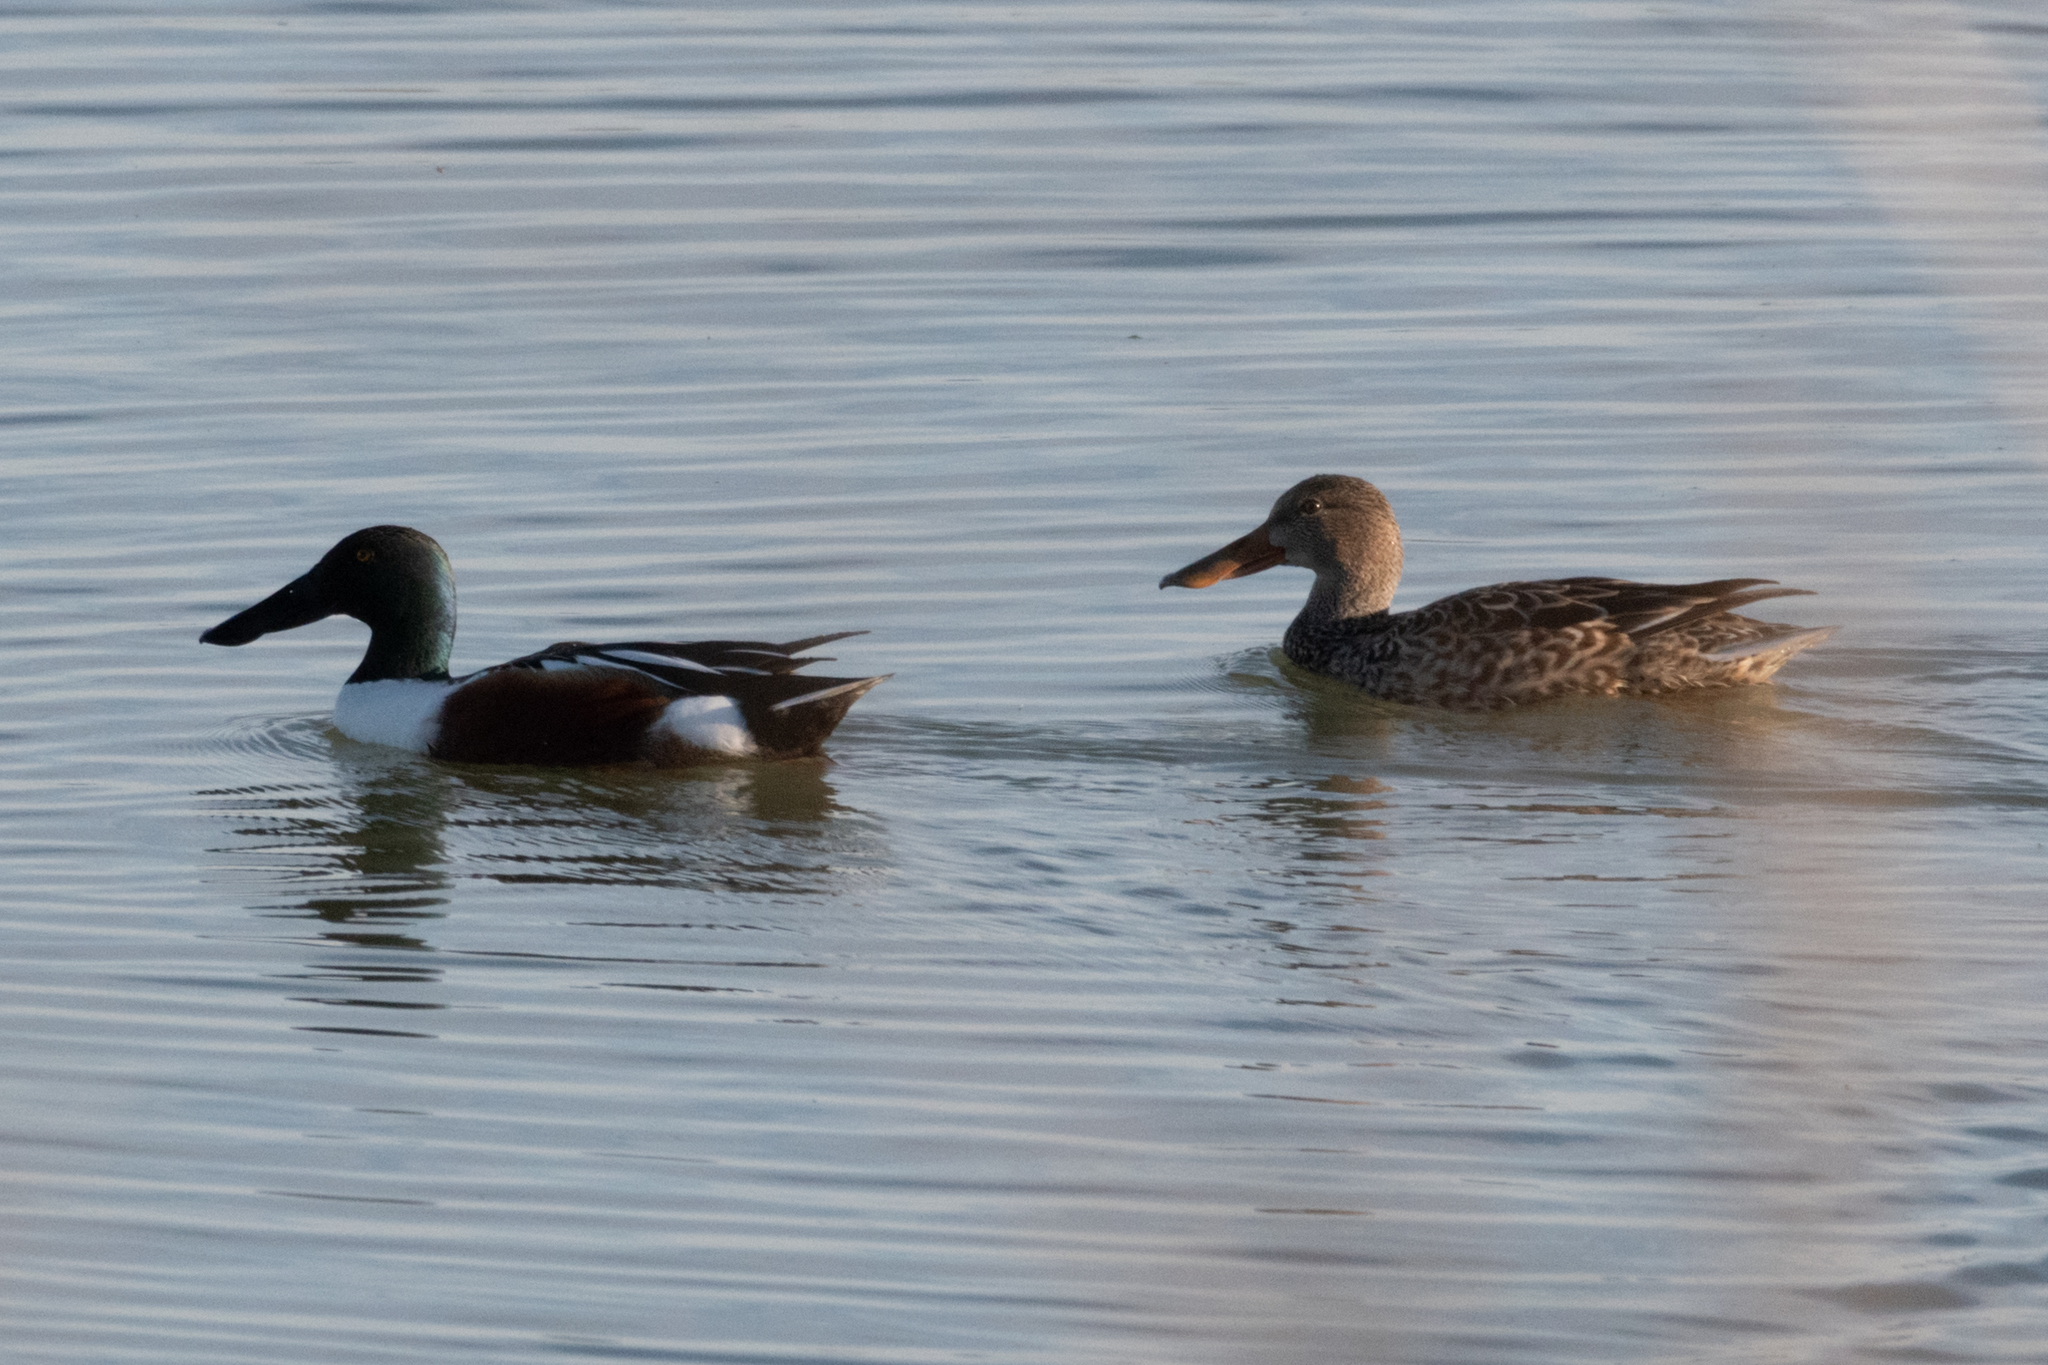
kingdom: Animalia
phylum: Chordata
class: Aves
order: Anseriformes
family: Anatidae
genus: Spatula
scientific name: Spatula clypeata
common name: Northern shoveler
